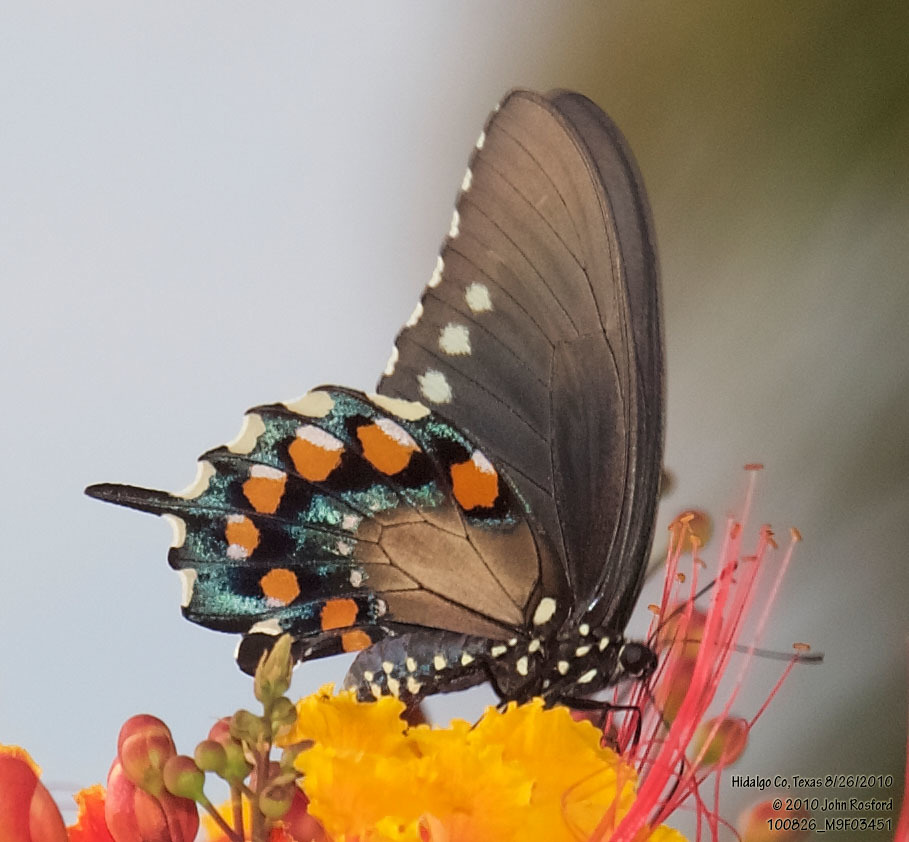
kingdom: Animalia
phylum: Arthropoda
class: Insecta
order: Lepidoptera
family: Papilionidae
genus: Battus
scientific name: Battus philenor
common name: Pipevine swallowtail
